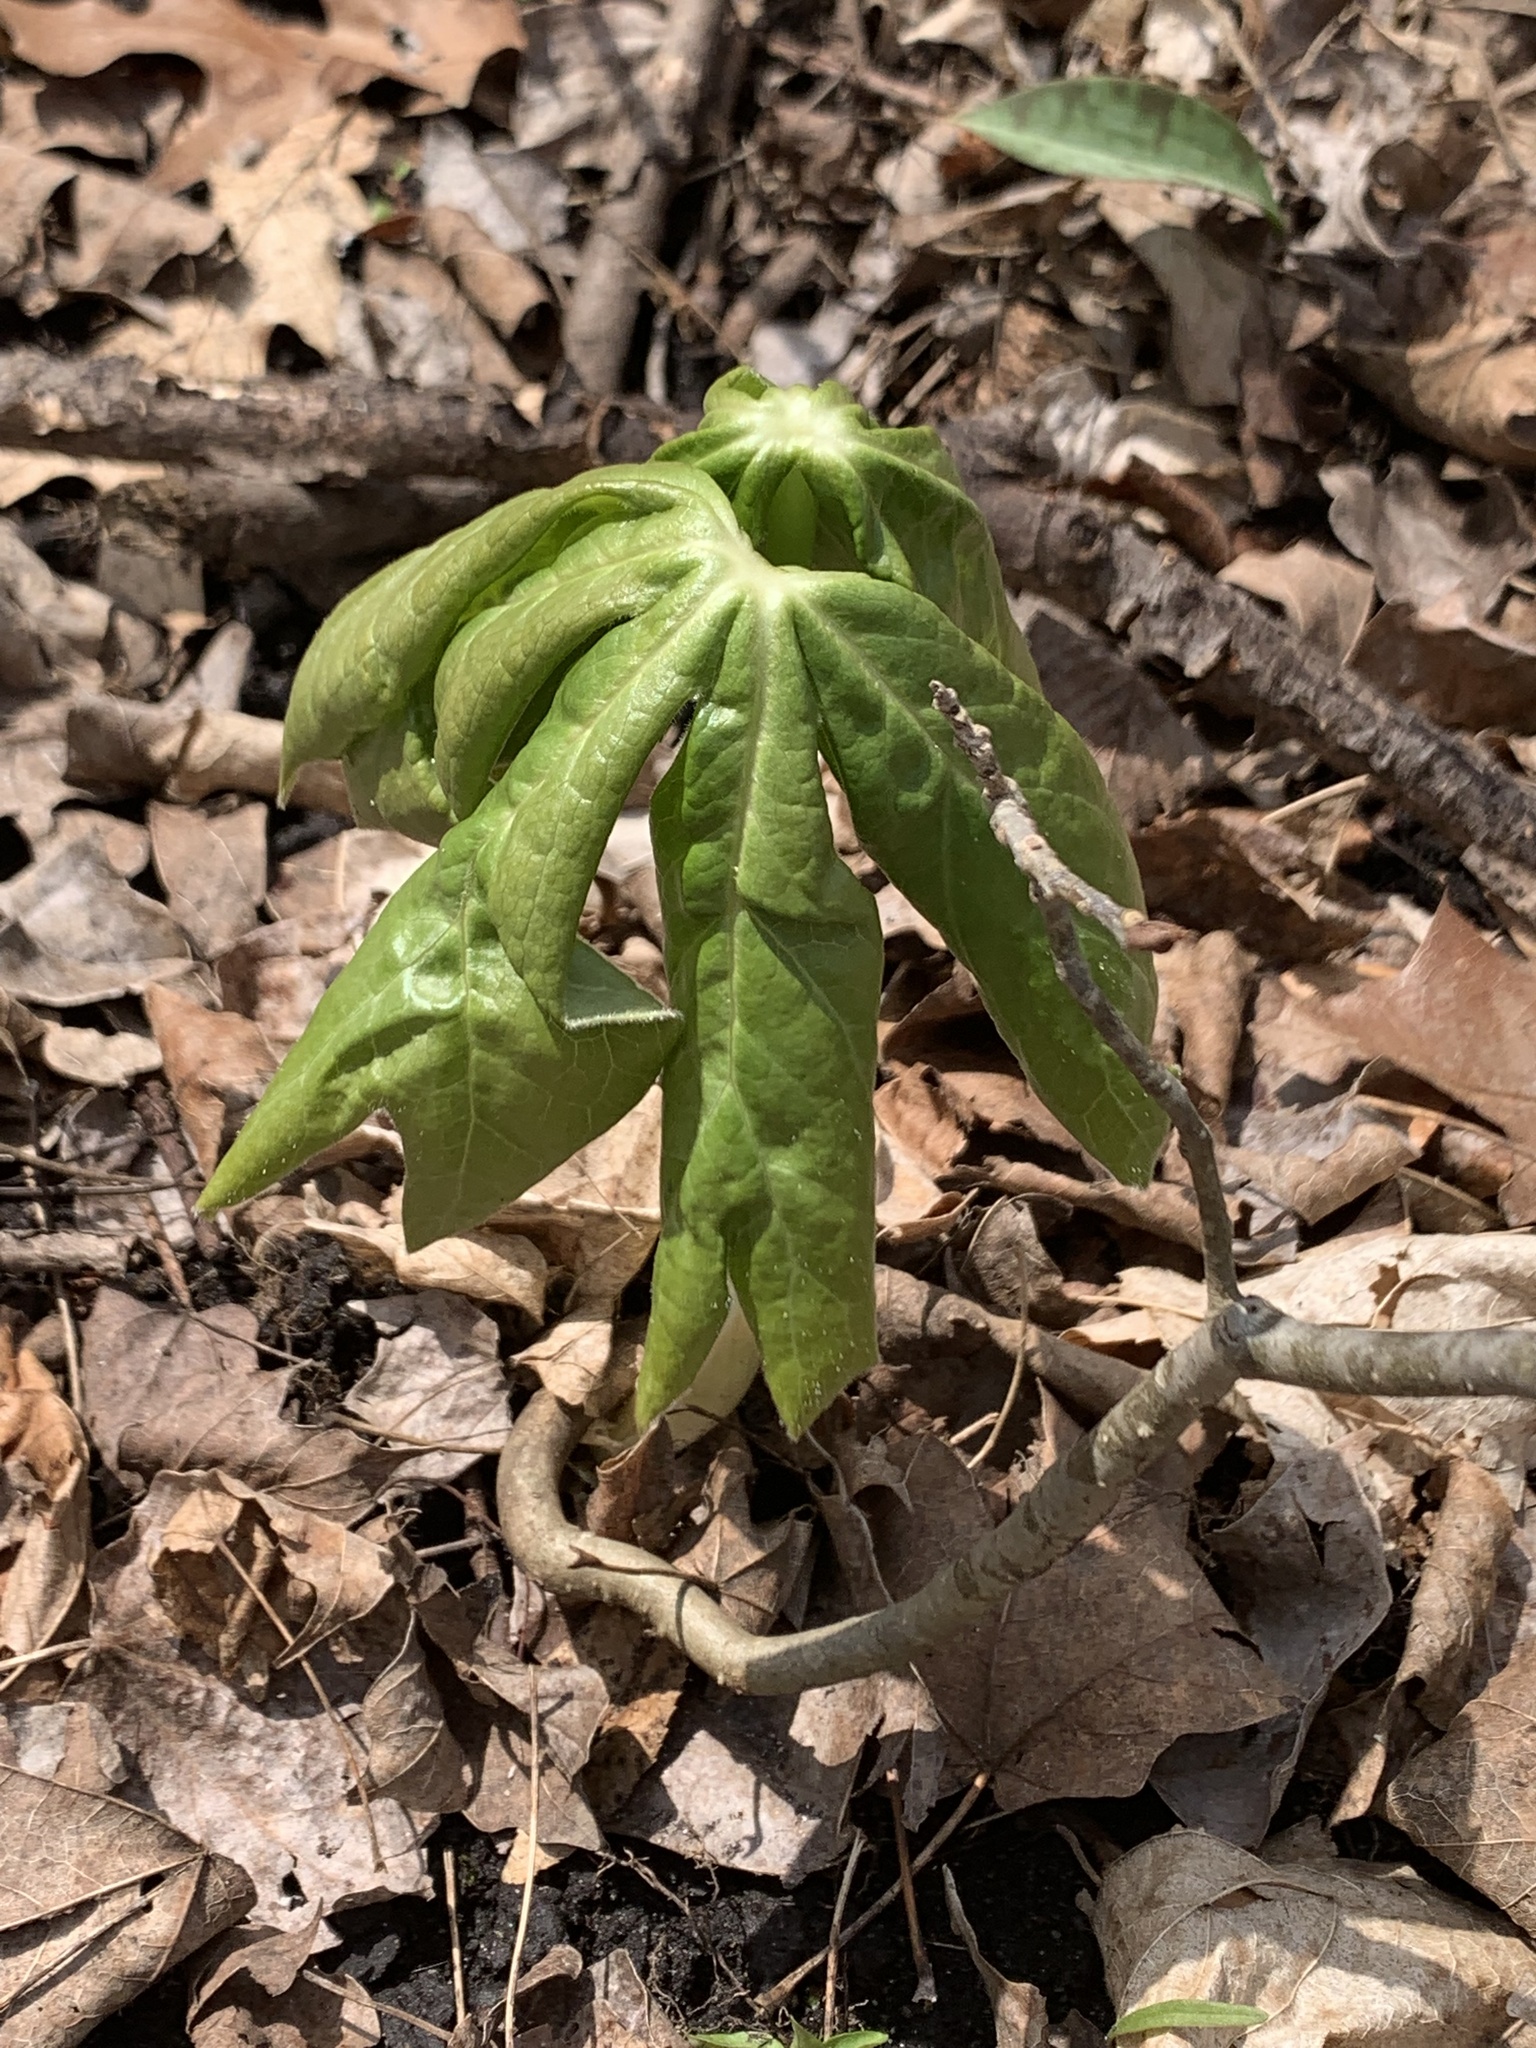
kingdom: Plantae
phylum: Tracheophyta
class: Magnoliopsida
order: Ranunculales
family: Berberidaceae
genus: Podophyllum
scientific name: Podophyllum peltatum
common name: Wild mandrake
